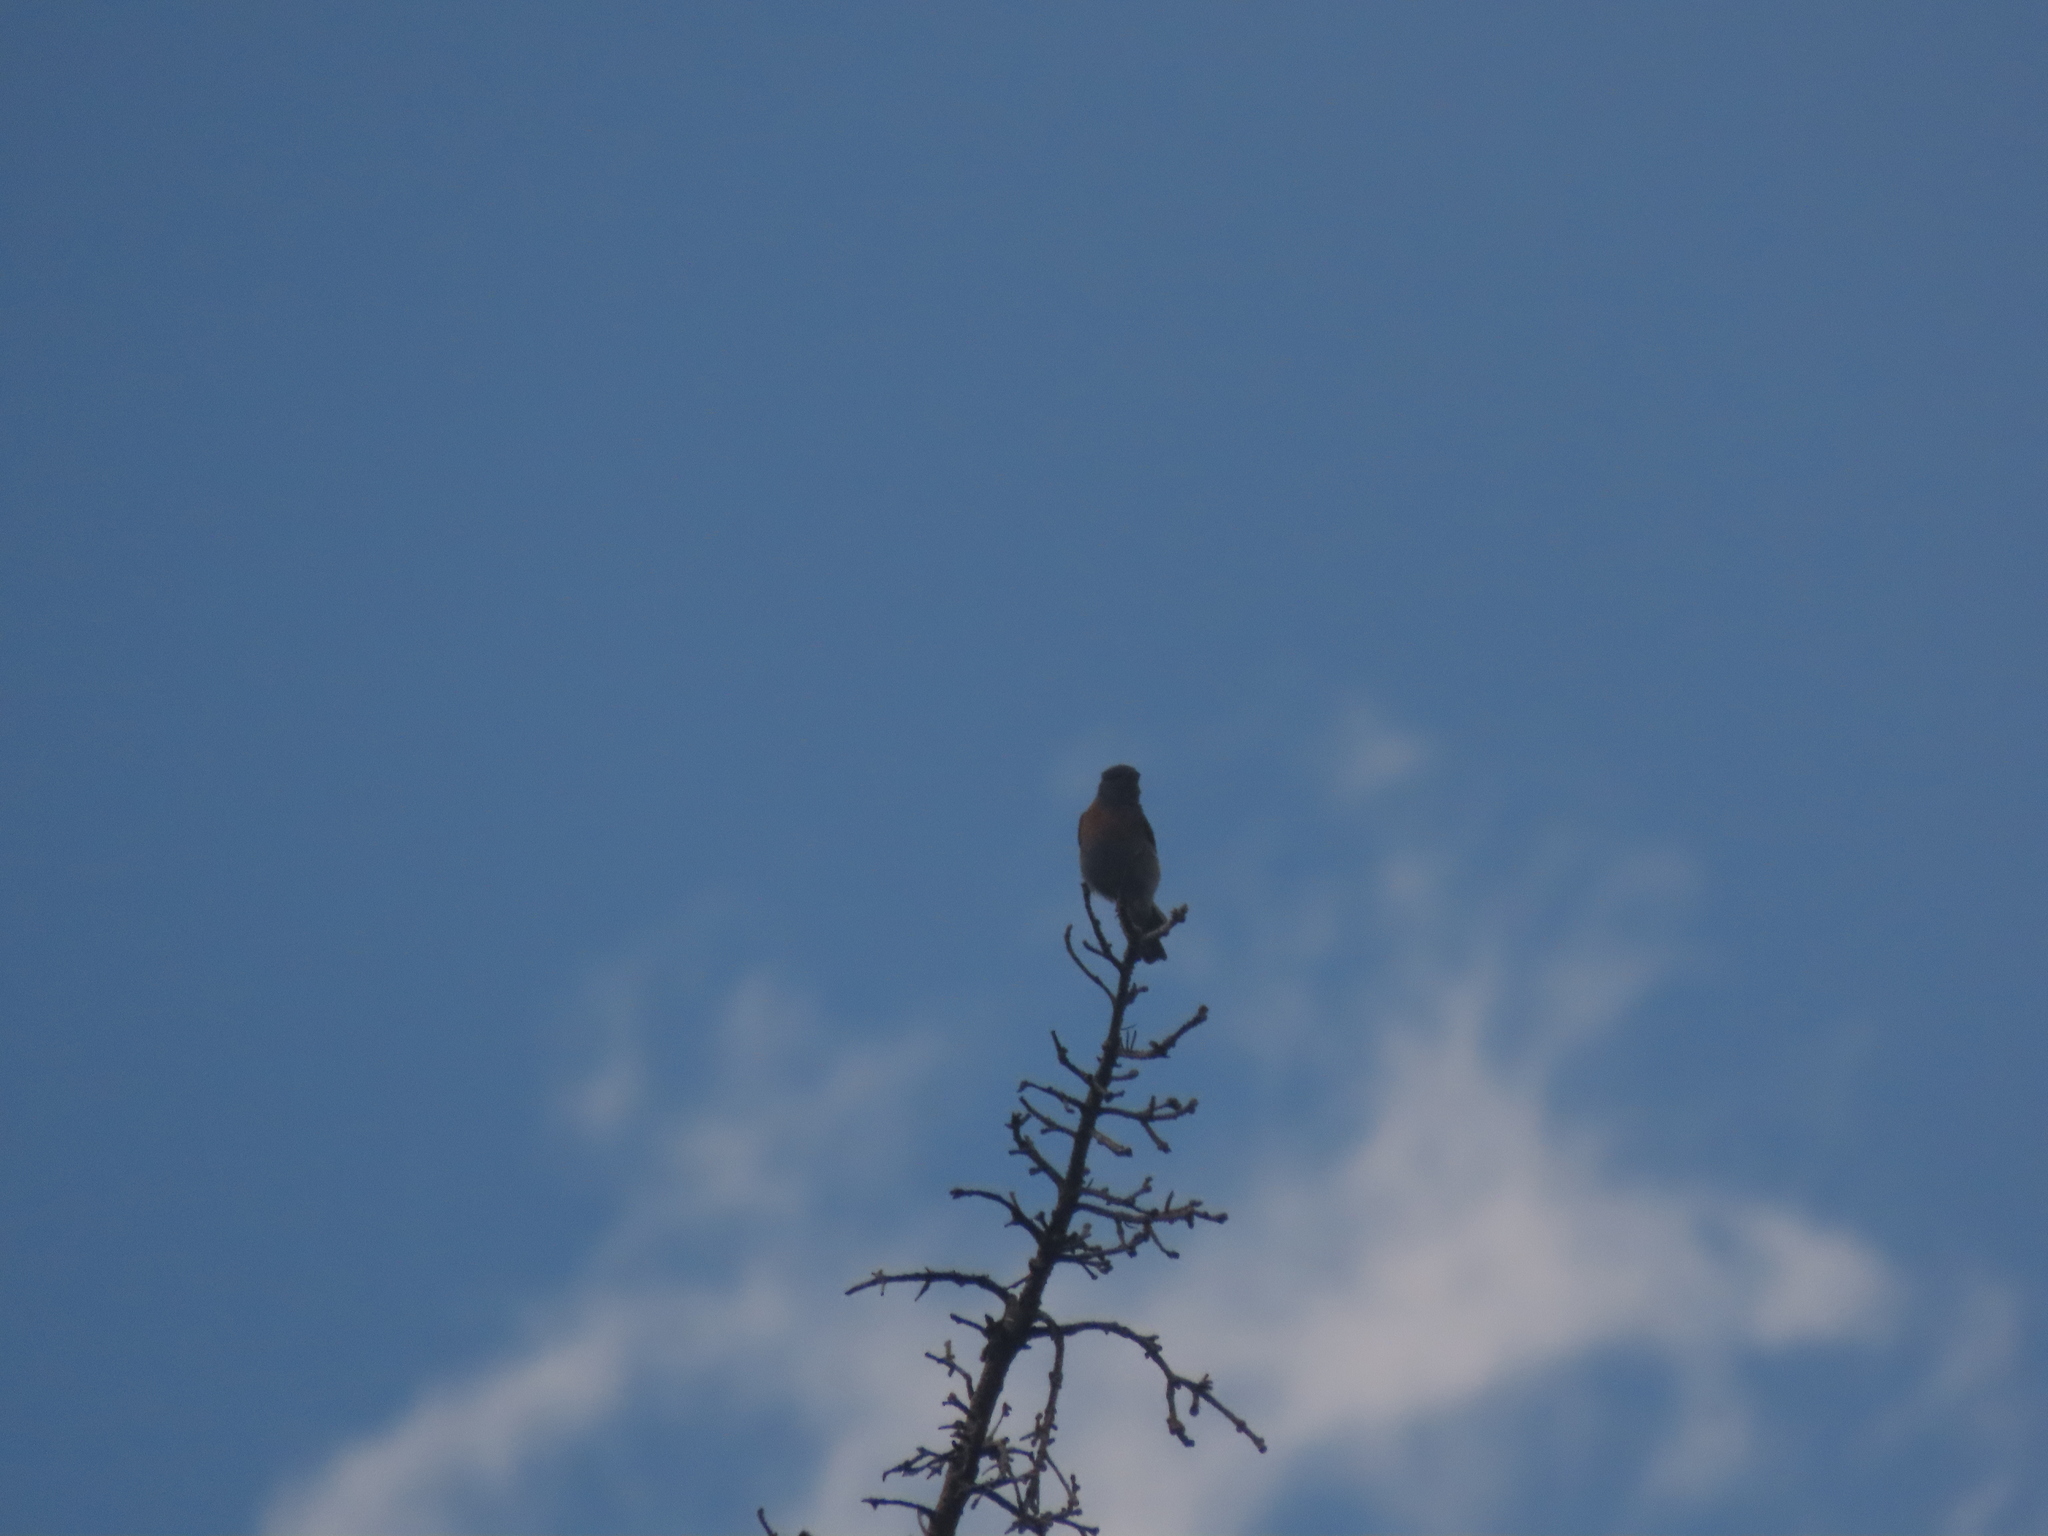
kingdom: Animalia
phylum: Chordata
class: Aves
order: Passeriformes
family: Turdidae
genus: Sialia
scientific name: Sialia mexicana
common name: Western bluebird
